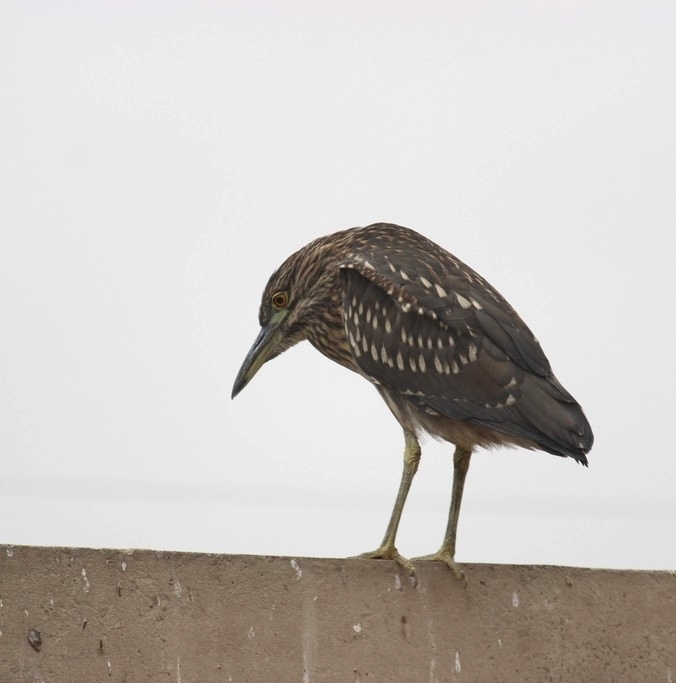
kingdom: Animalia
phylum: Chordata
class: Aves
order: Pelecaniformes
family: Ardeidae
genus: Nycticorax
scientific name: Nycticorax nycticorax
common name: Black-crowned night heron
